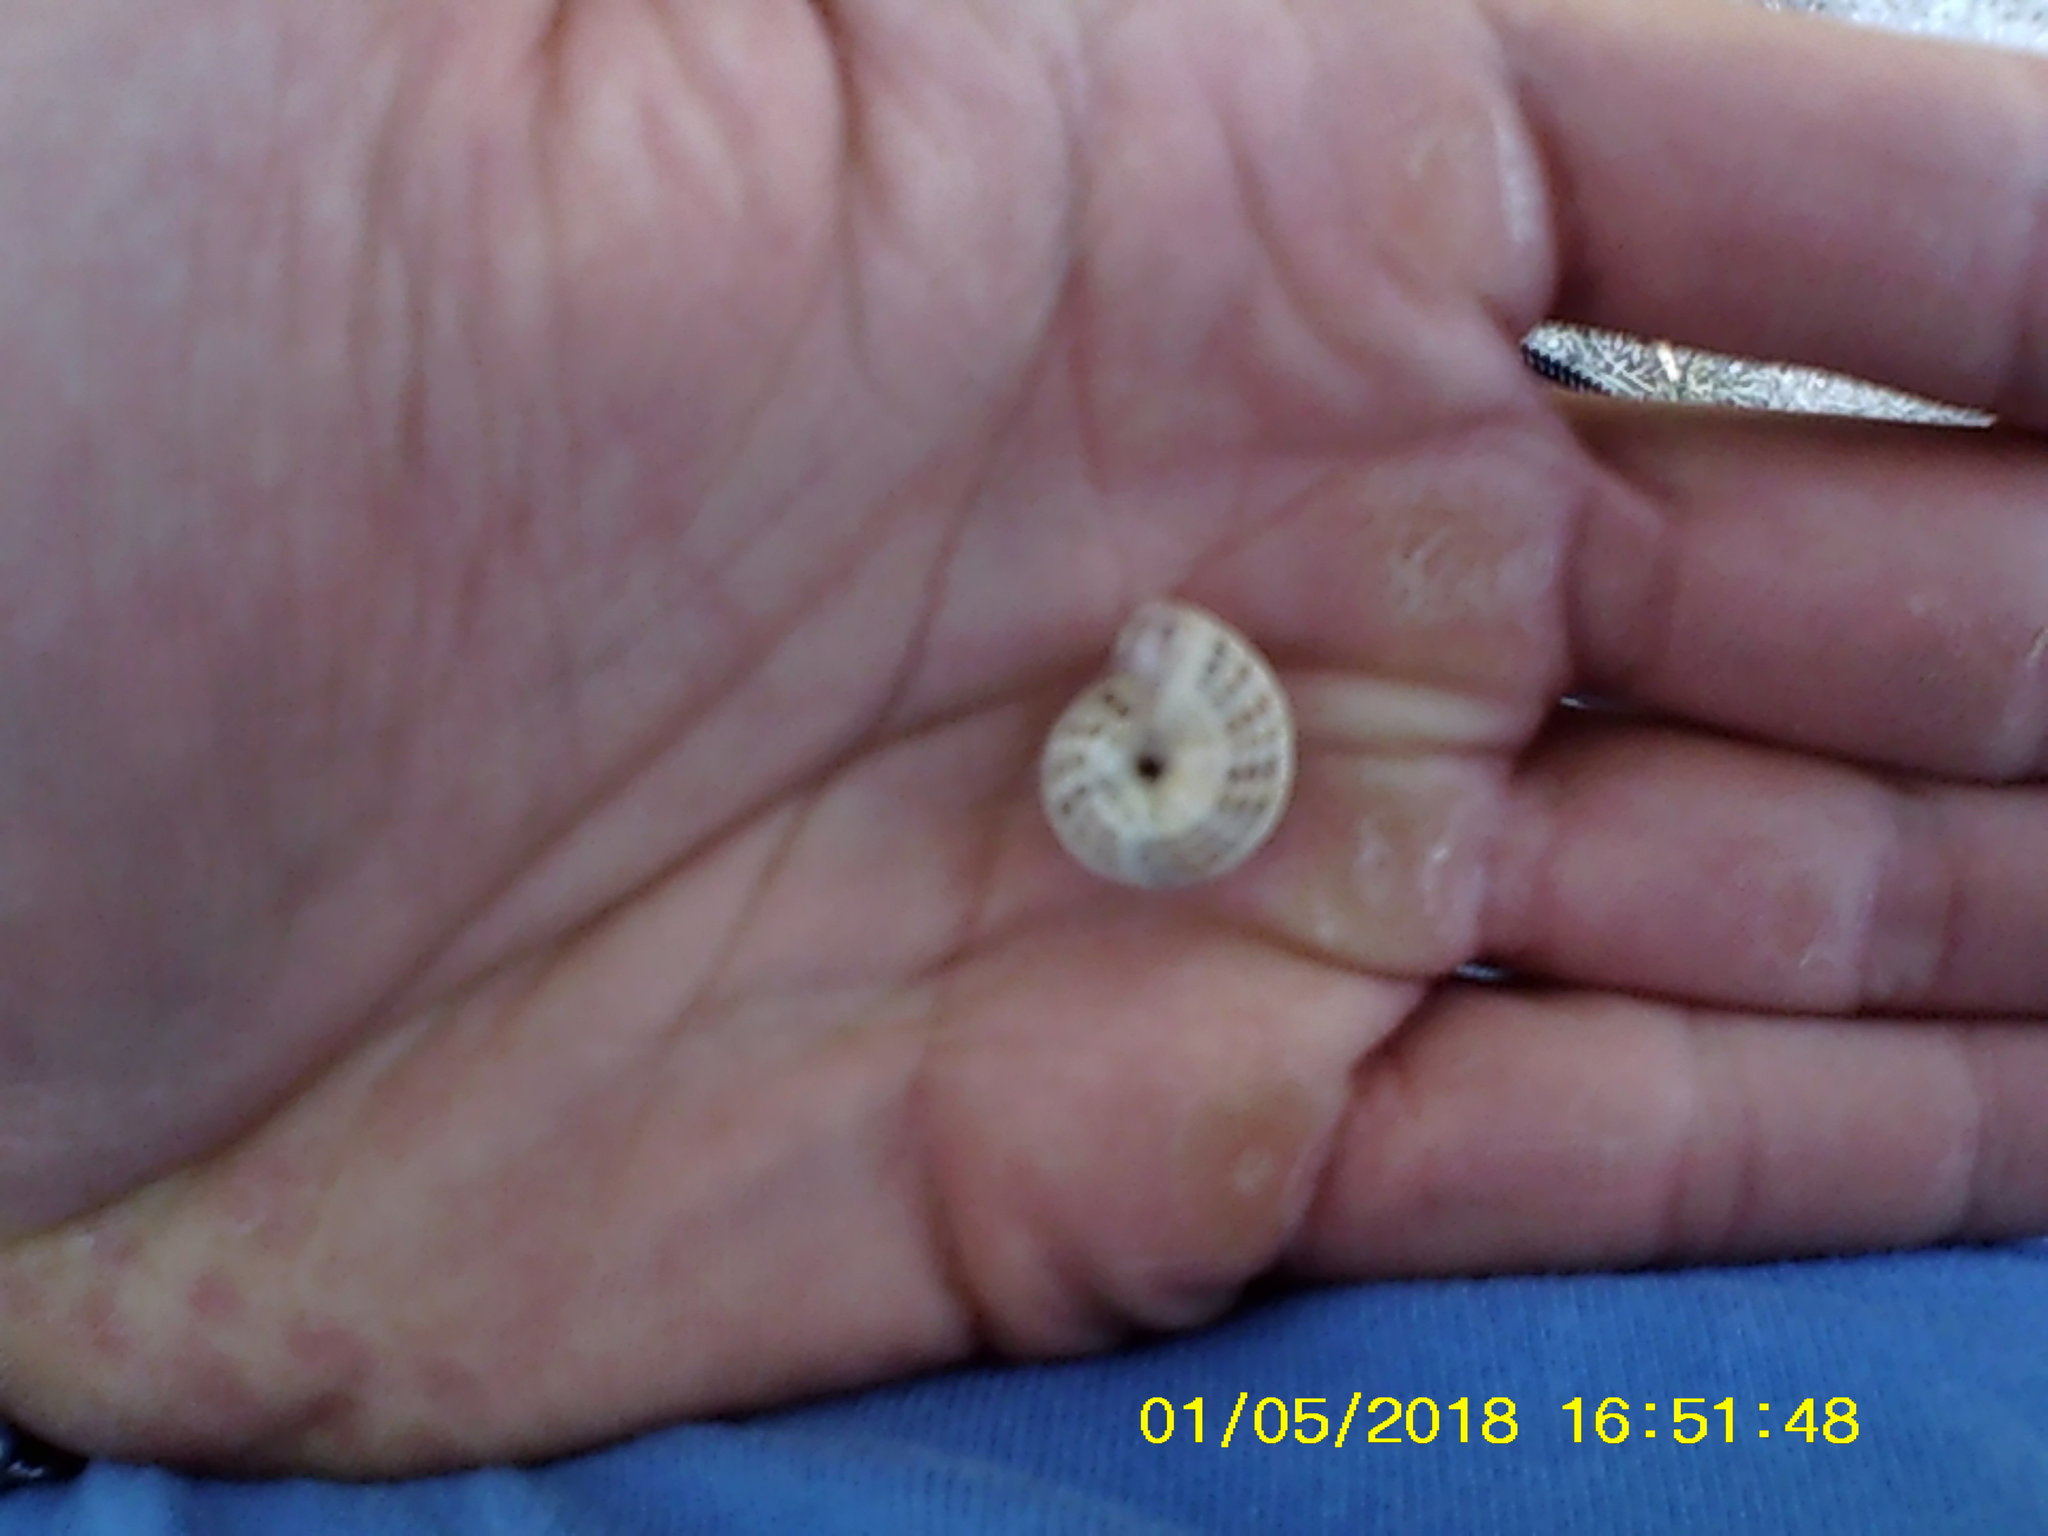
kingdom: Animalia
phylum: Mollusca
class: Gastropoda
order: Stylommatophora
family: Geomitridae
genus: Xeropicta
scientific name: Xeropicta krynickii
